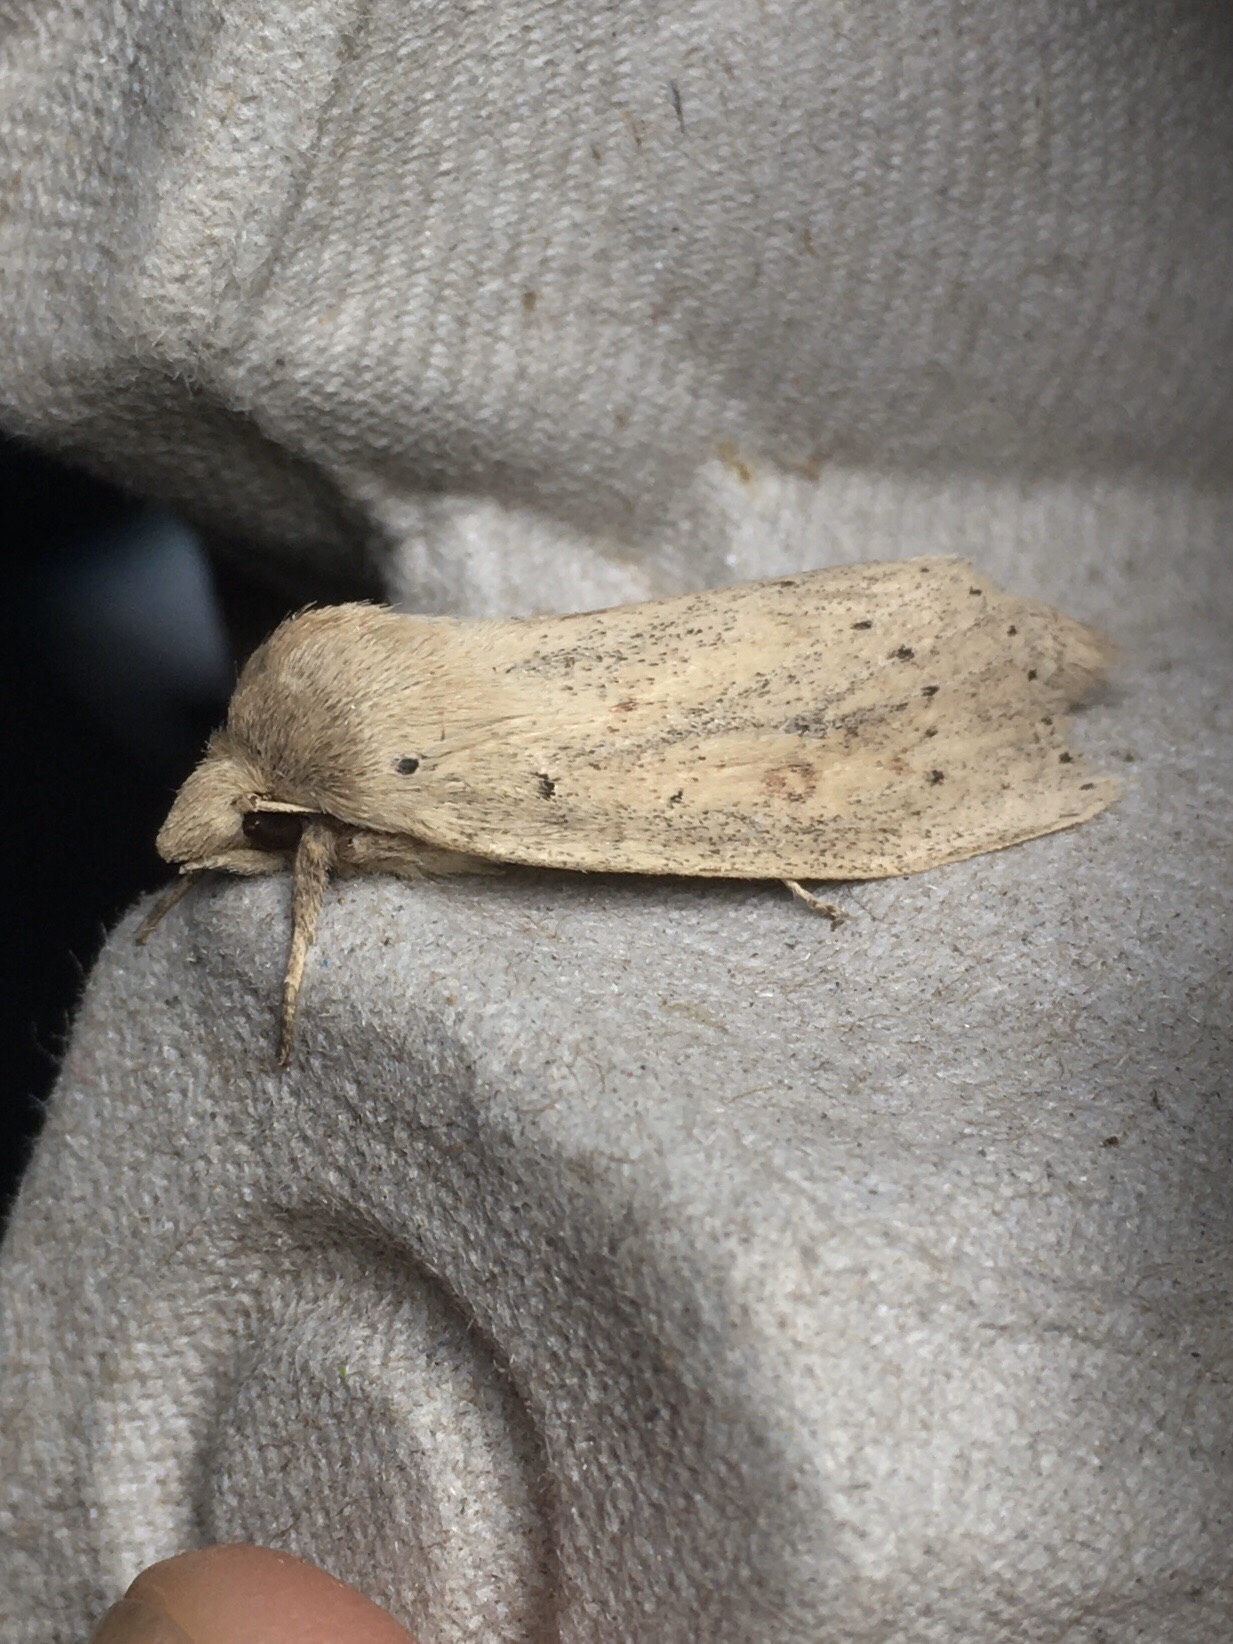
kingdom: Animalia
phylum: Arthropoda
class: Insecta
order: Lepidoptera
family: Noctuidae
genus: Globia
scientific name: Globia oblonga
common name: Oblong sedge borer moth
